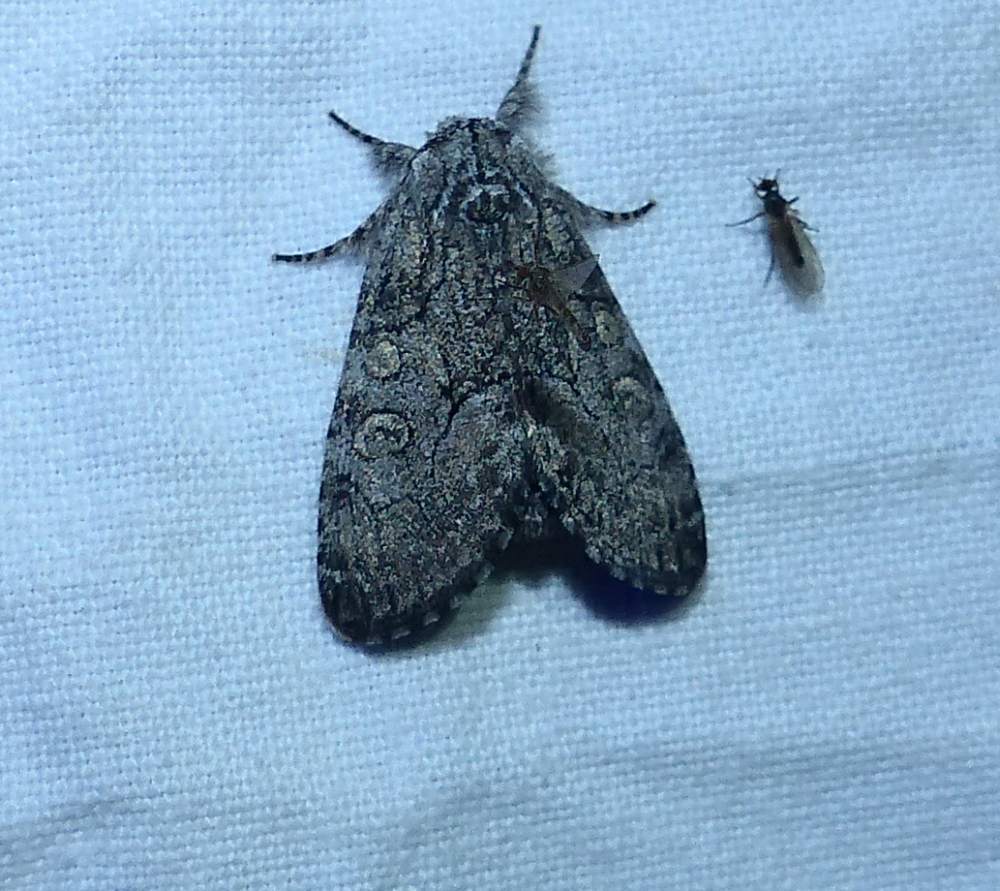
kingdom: Animalia
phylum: Arthropoda
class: Insecta
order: Lepidoptera
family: Noctuidae
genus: Raphia
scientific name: Raphia frater
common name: Brother
